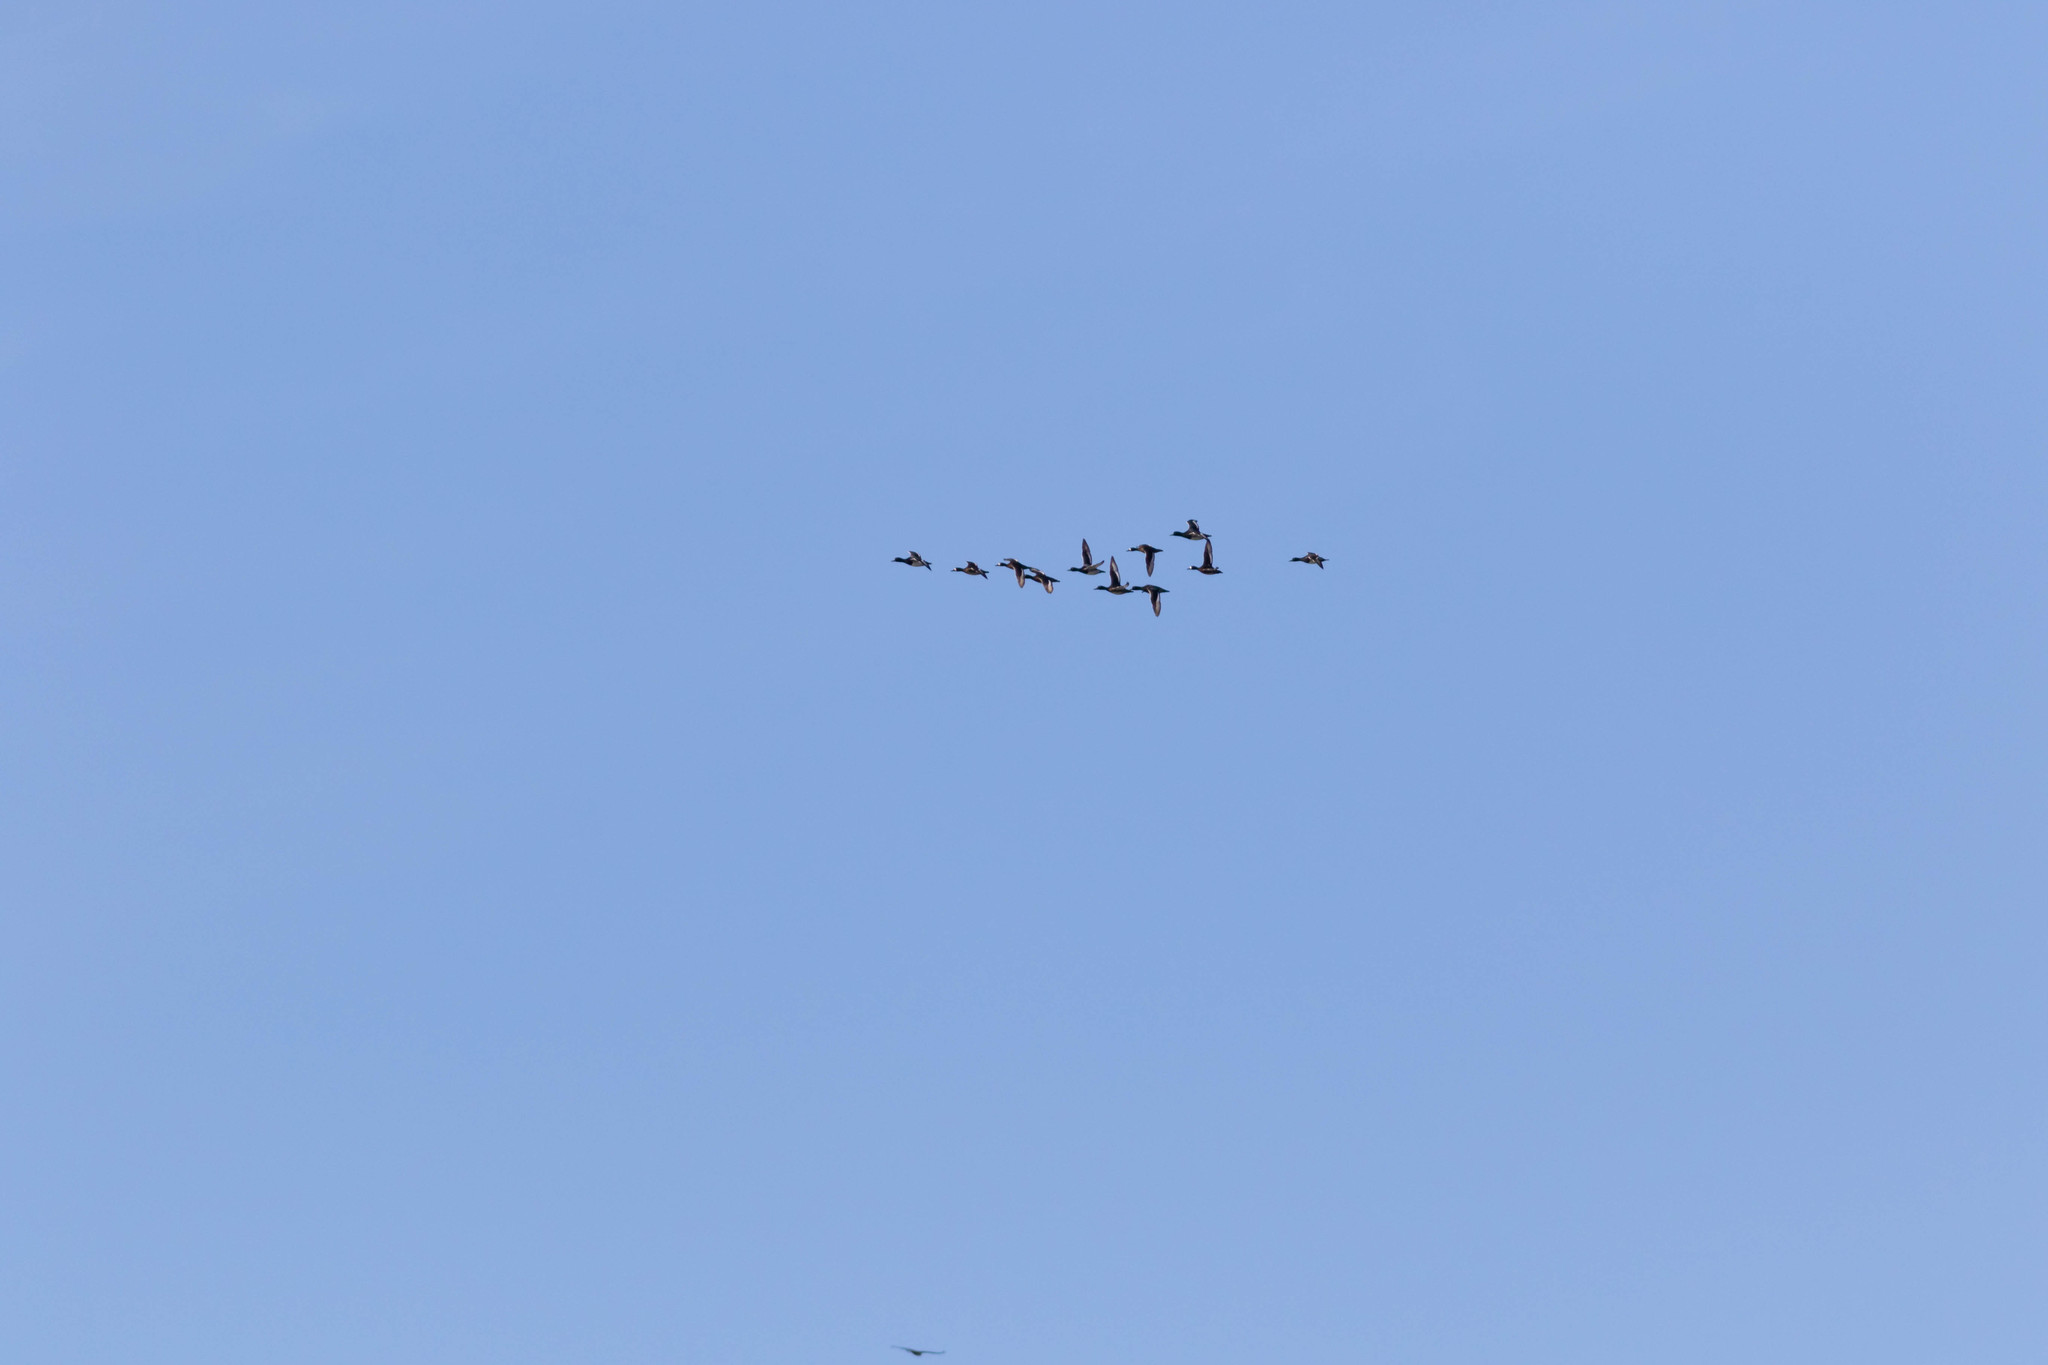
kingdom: Animalia
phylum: Chordata
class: Aves
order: Anseriformes
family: Anatidae
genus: Aythya
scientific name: Aythya
